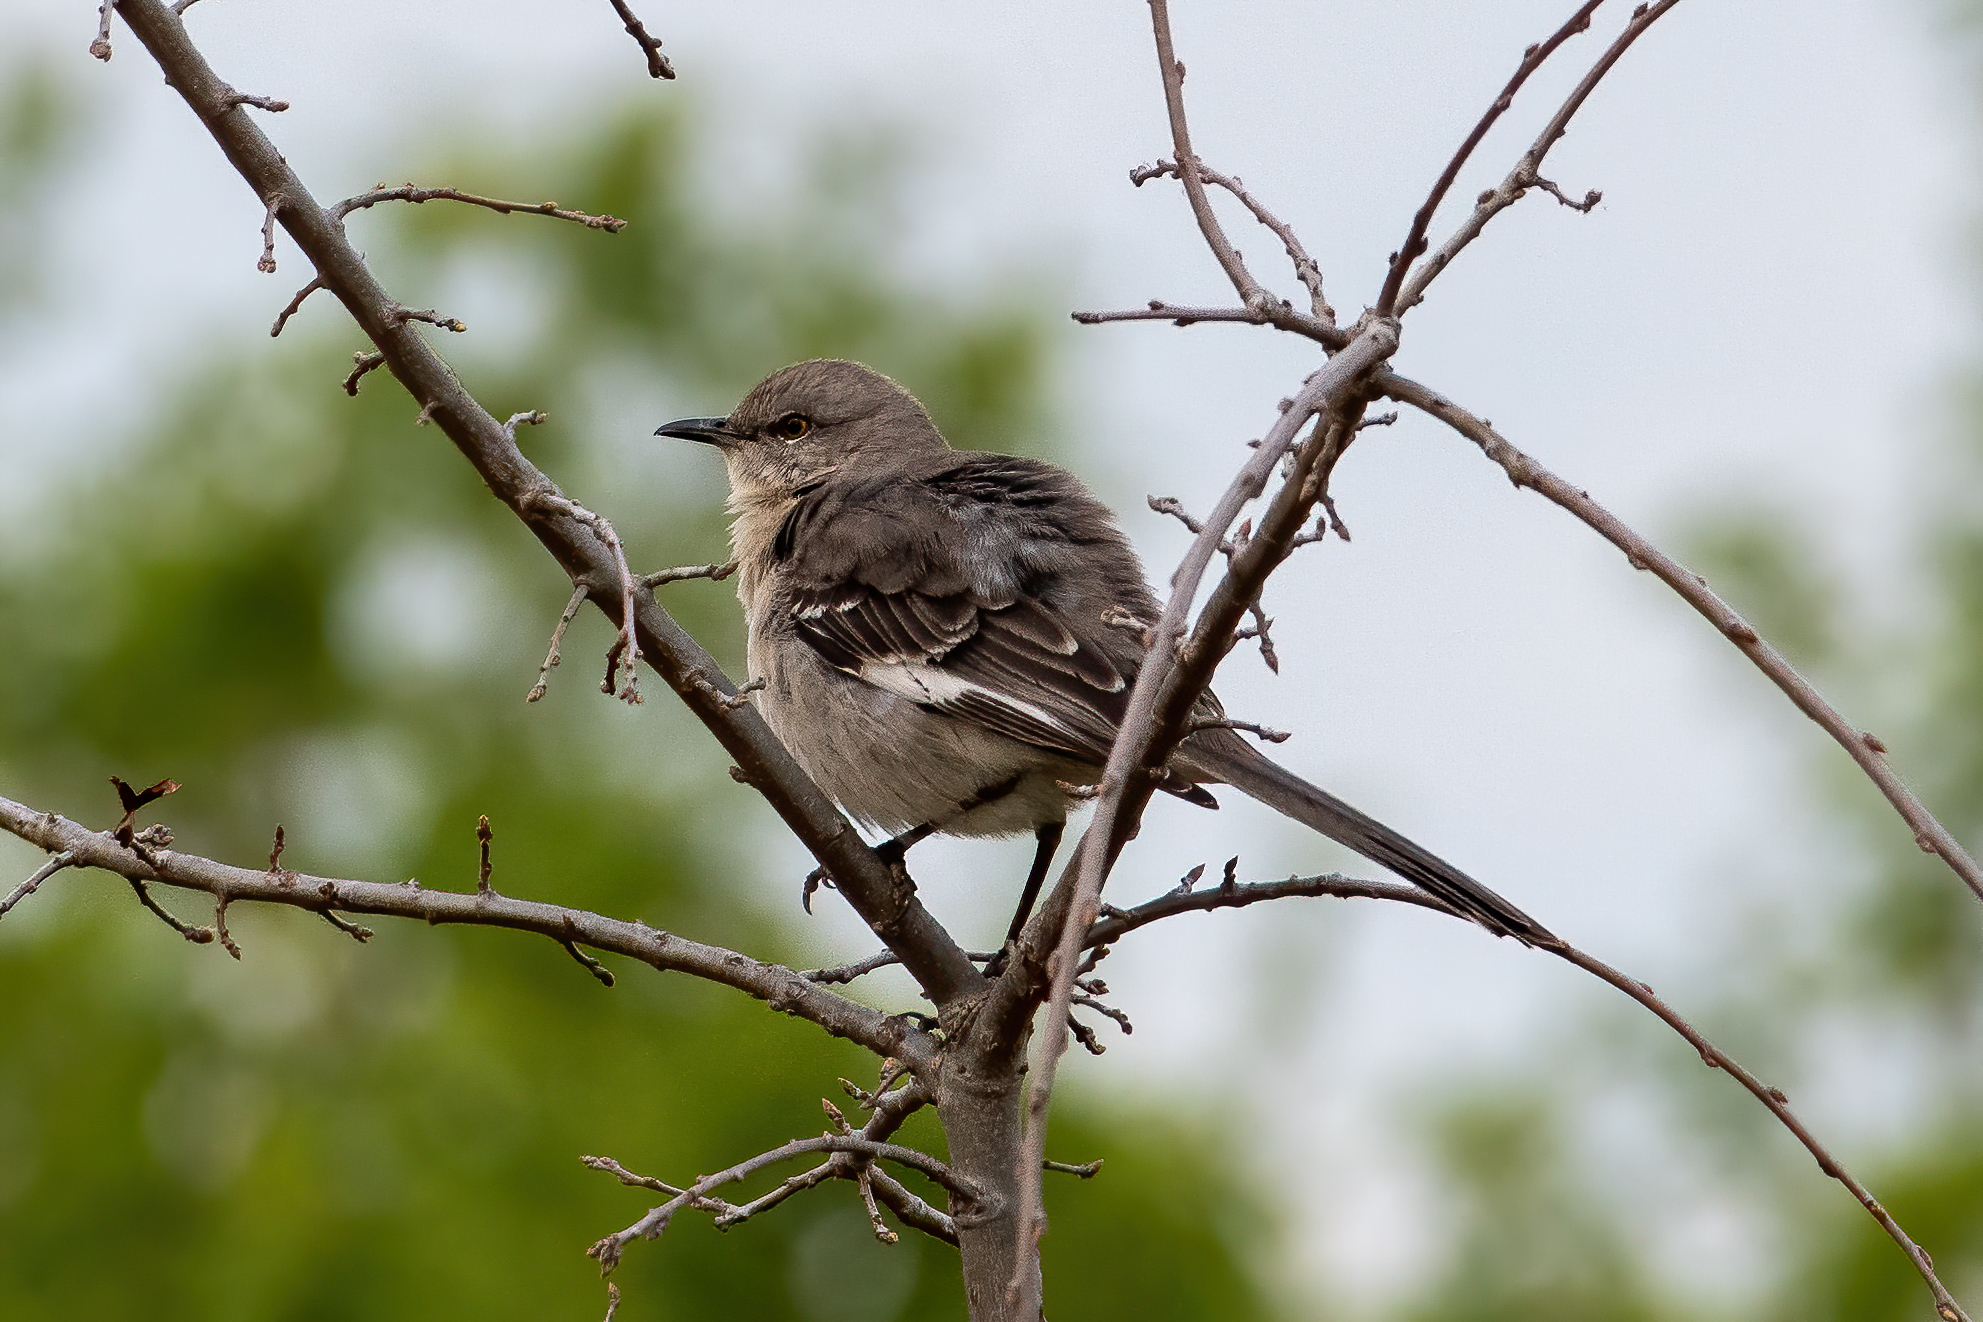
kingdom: Animalia
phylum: Chordata
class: Aves
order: Passeriformes
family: Mimidae
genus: Mimus
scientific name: Mimus polyglottos
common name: Northern mockingbird
